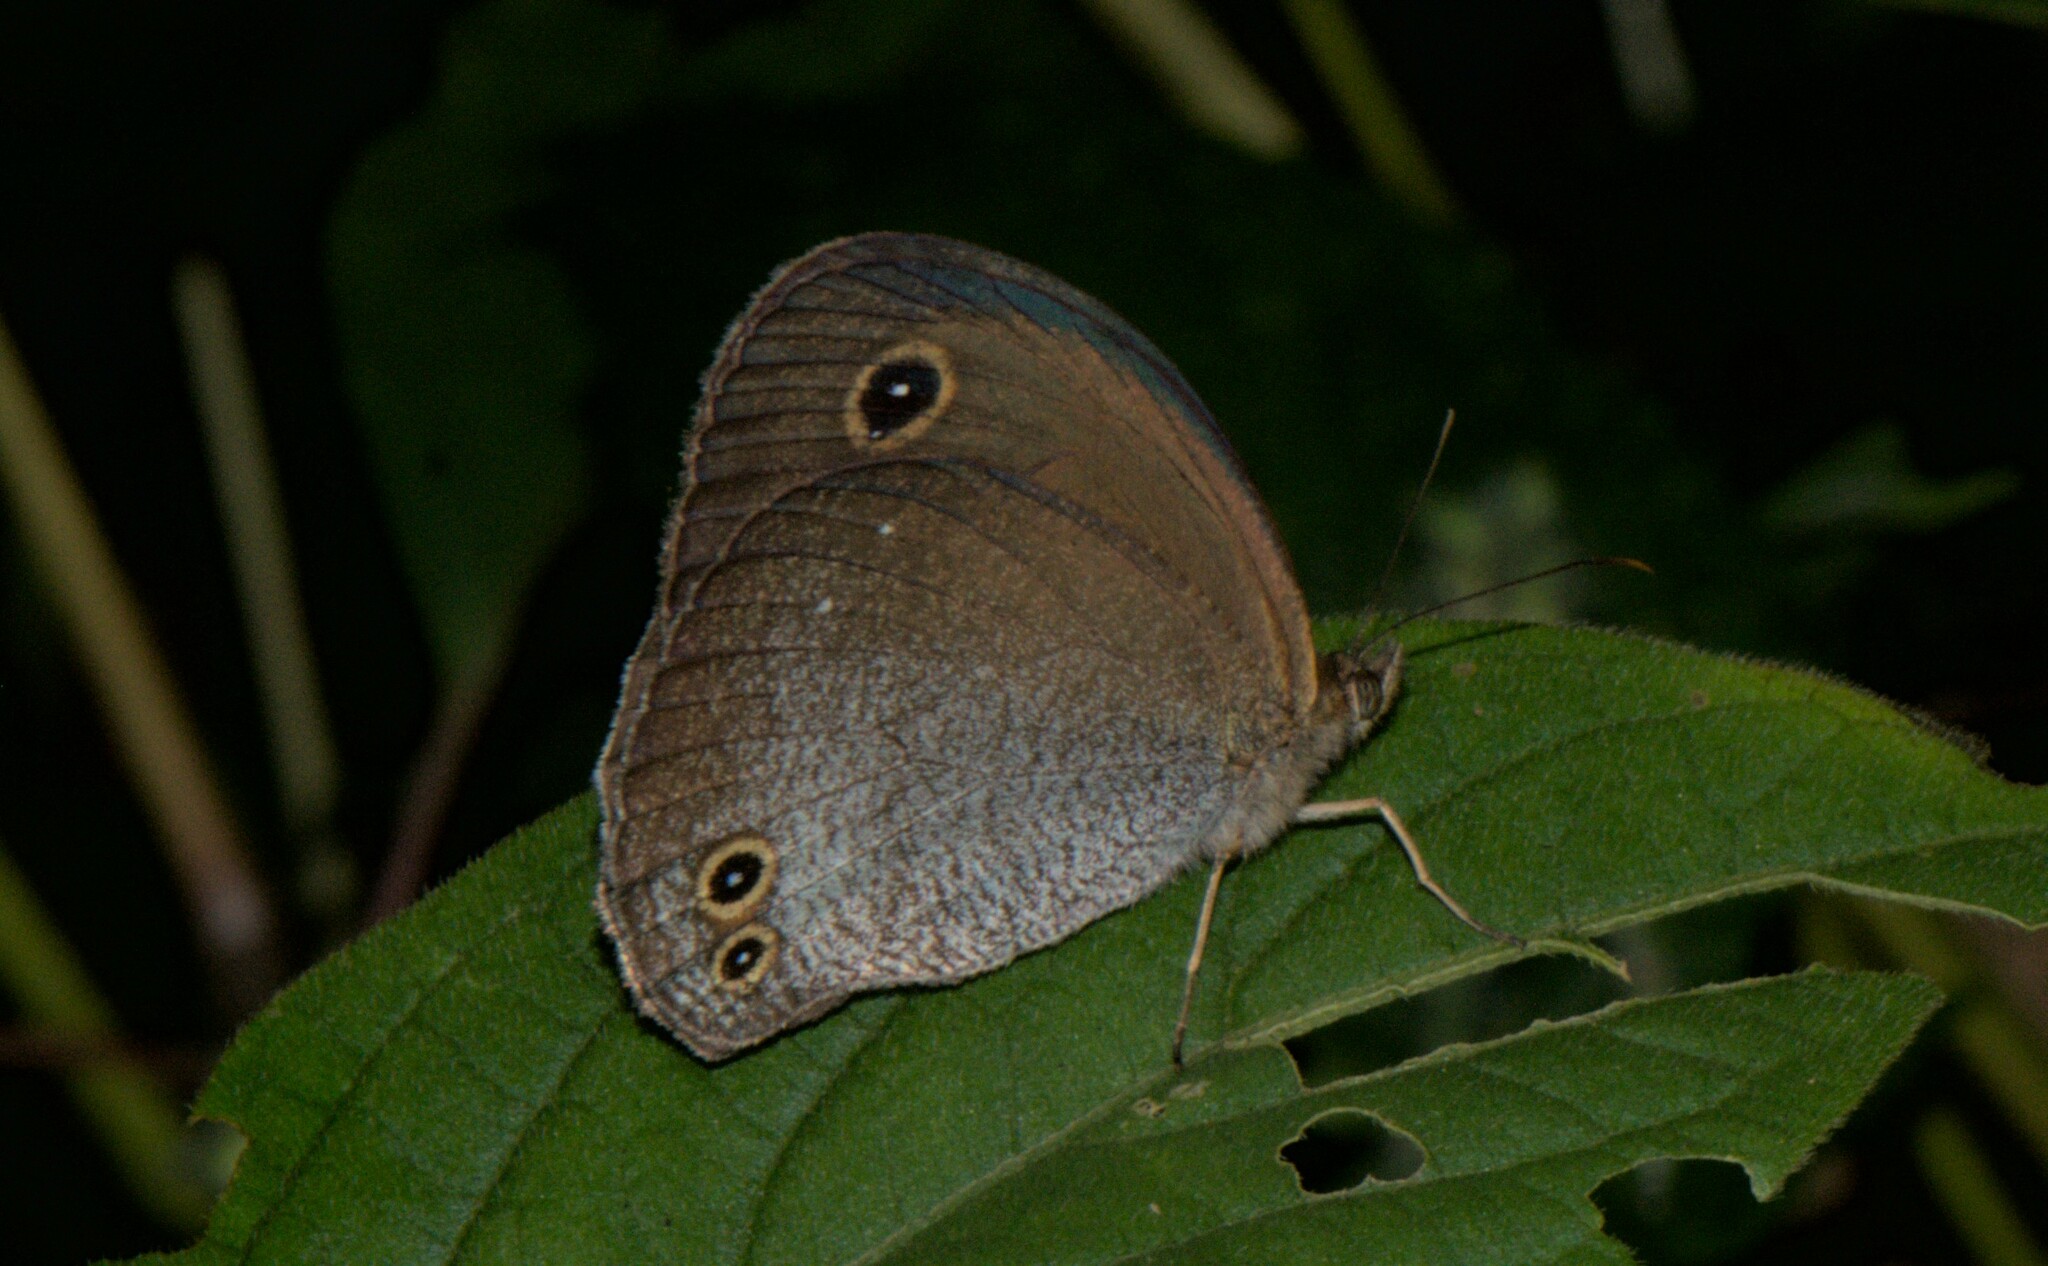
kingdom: Animalia
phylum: Arthropoda
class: Insecta
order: Lepidoptera
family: Nymphalidae
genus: Callerebia
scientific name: Callerebia scanda
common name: Pallid argus
